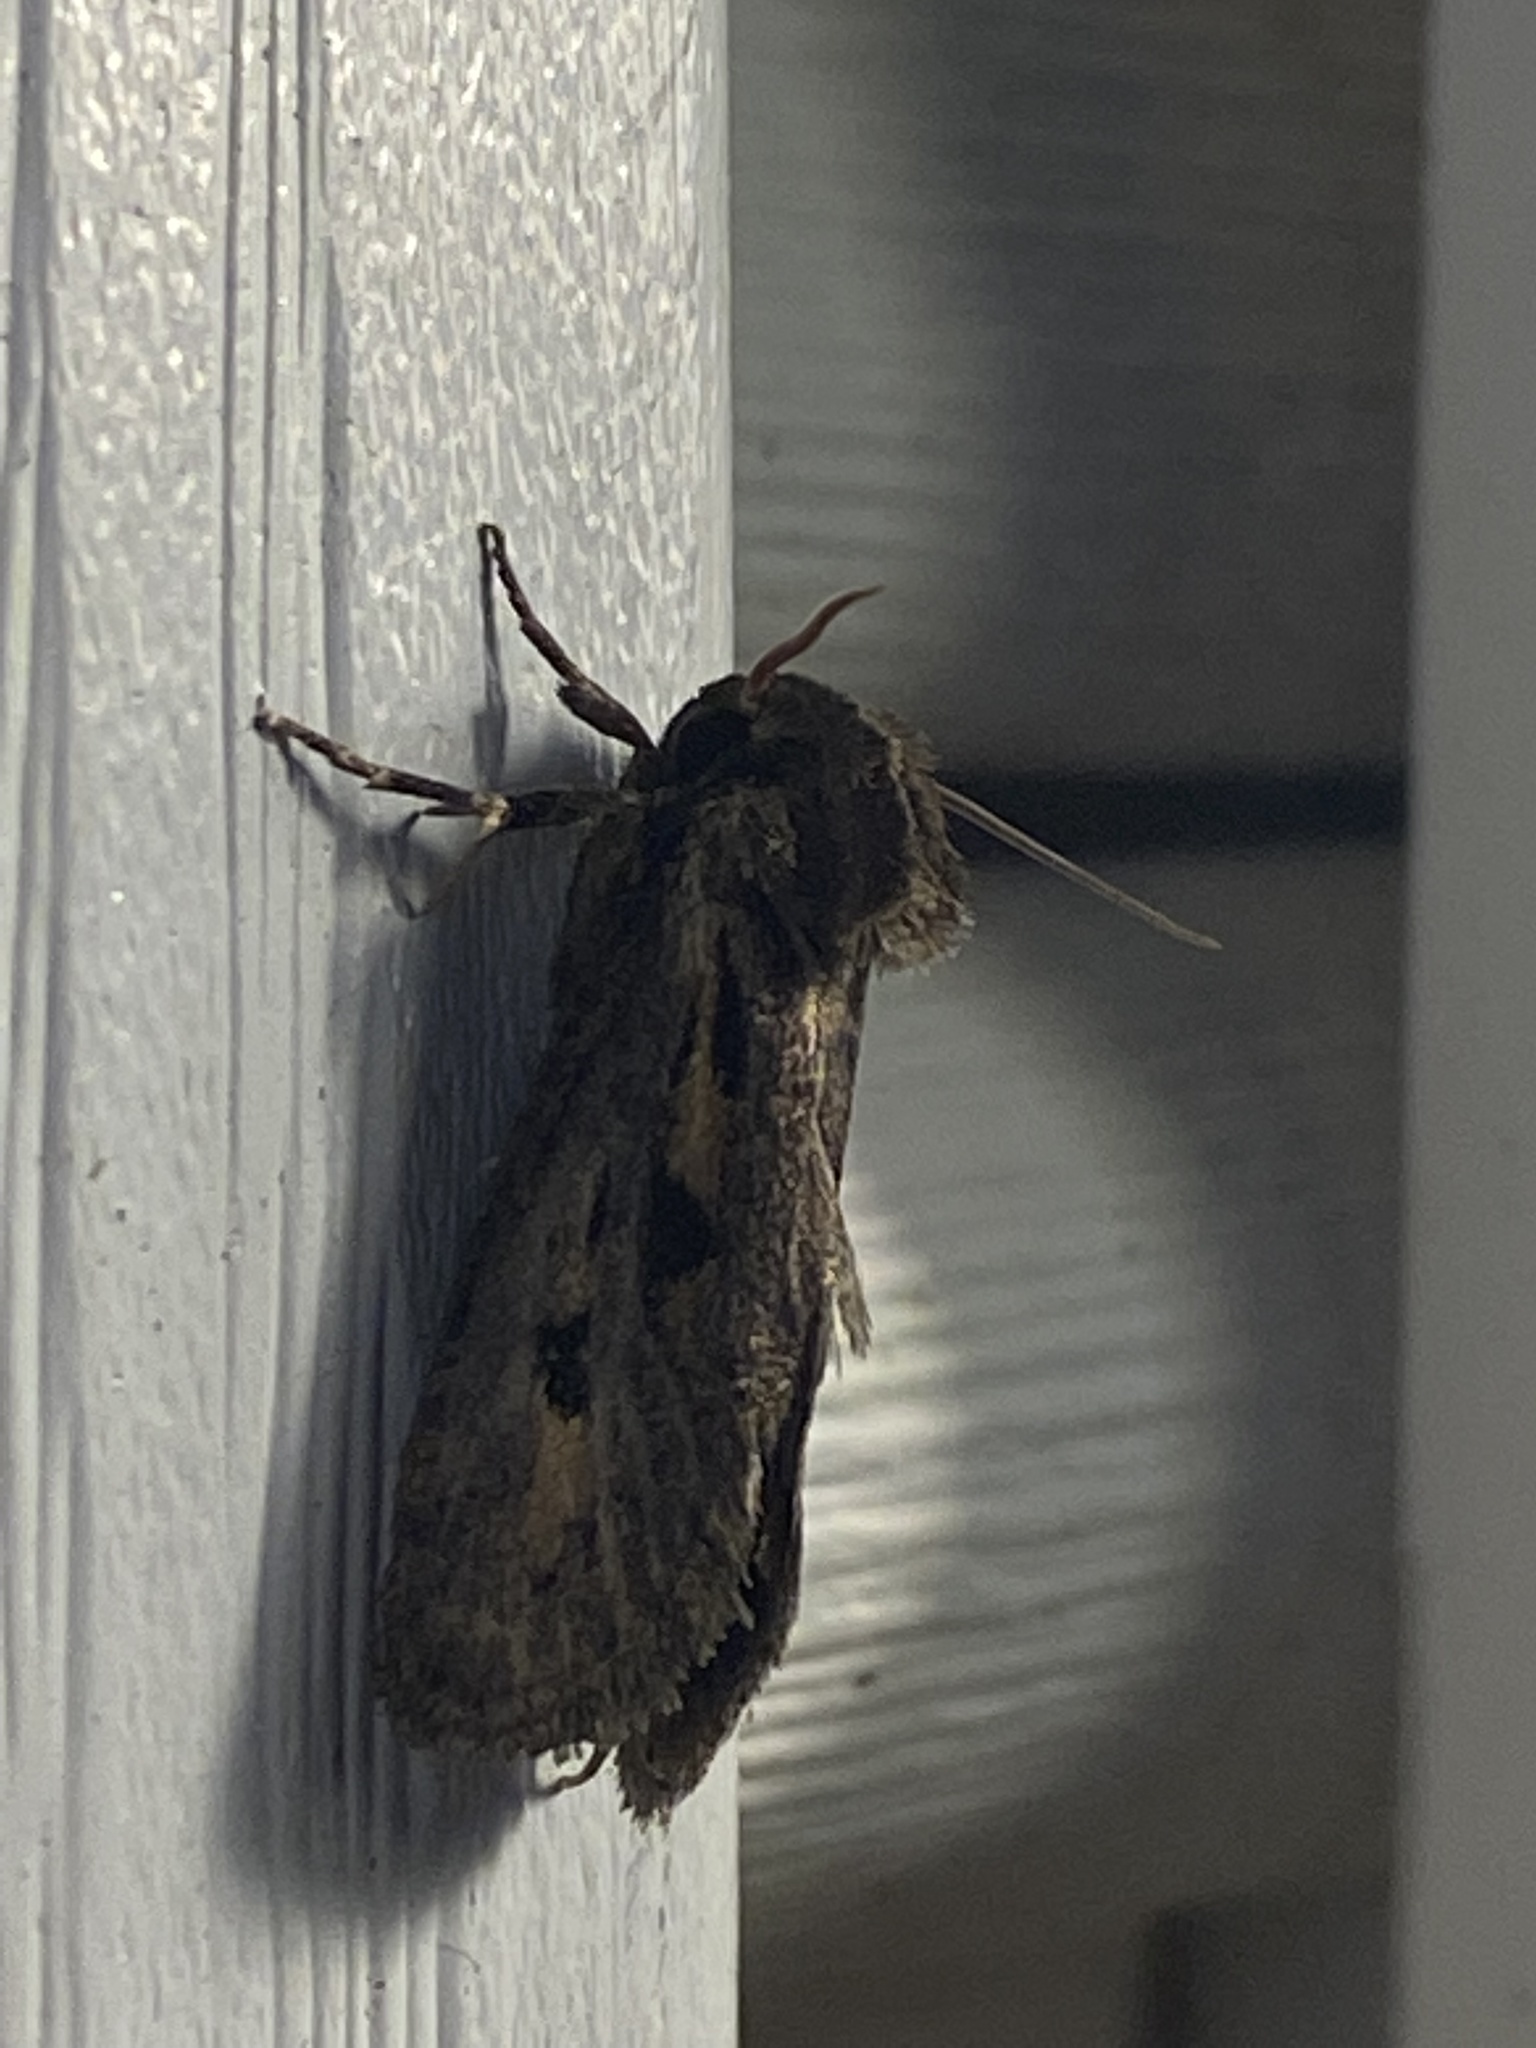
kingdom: Animalia
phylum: Arthropoda
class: Insecta
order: Lepidoptera
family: Tineidae
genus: Acrolophus
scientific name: Acrolophus popeanella
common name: Clemens' grass tubeworm moth
